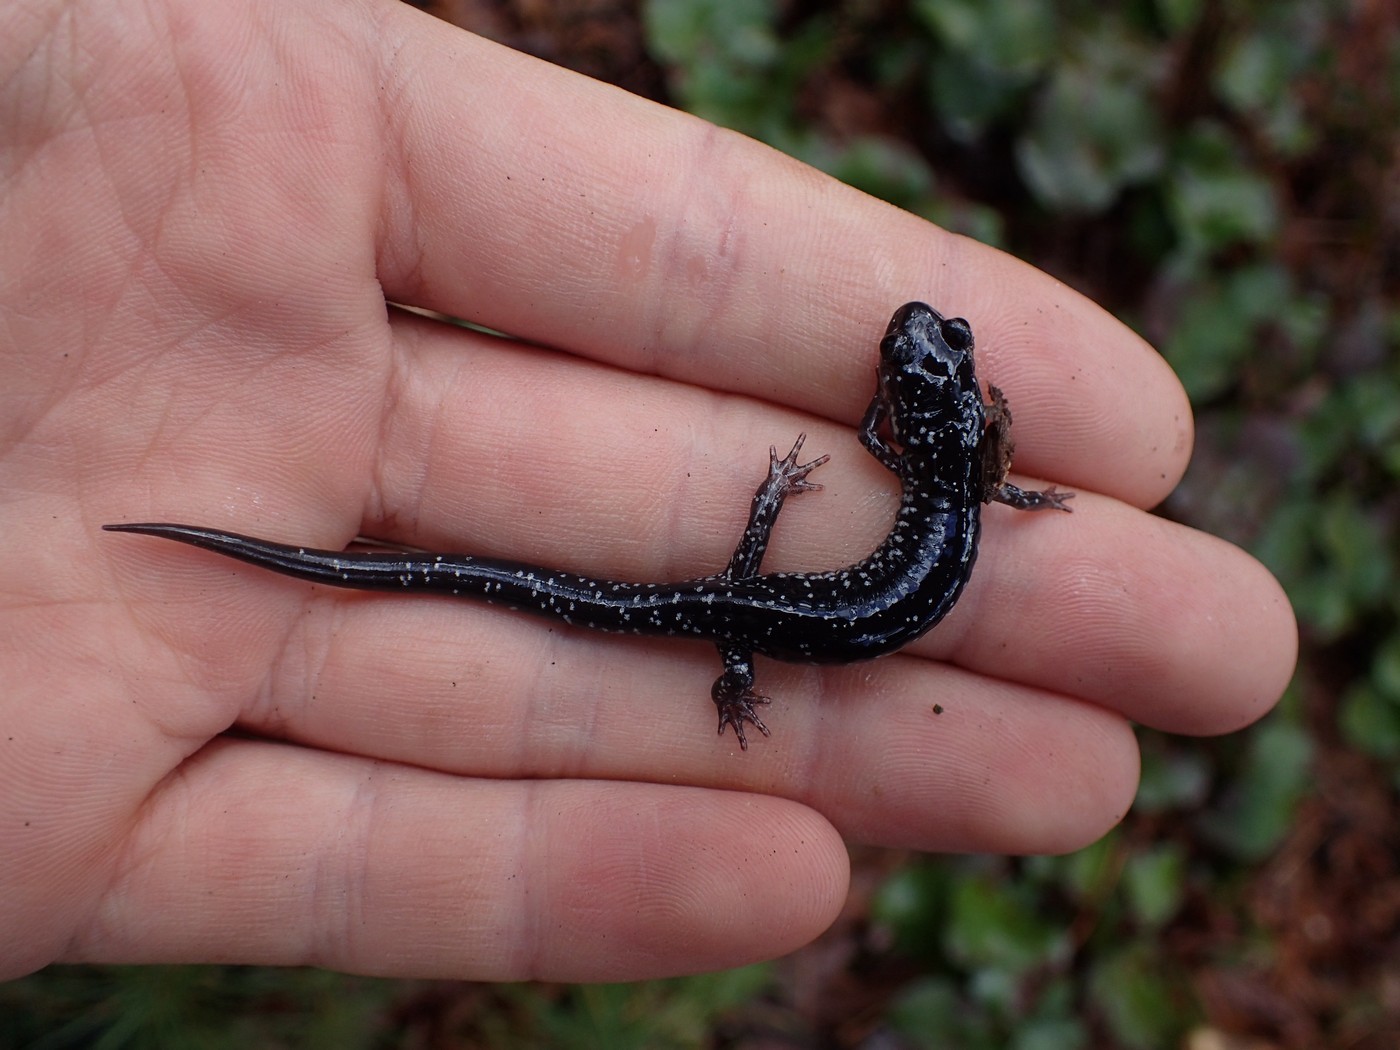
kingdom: Animalia
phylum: Chordata
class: Amphibia
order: Caudata
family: Plethodontidae
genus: Plethodon
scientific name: Plethodon cylindraceus
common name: White-spotted slimy salamander
